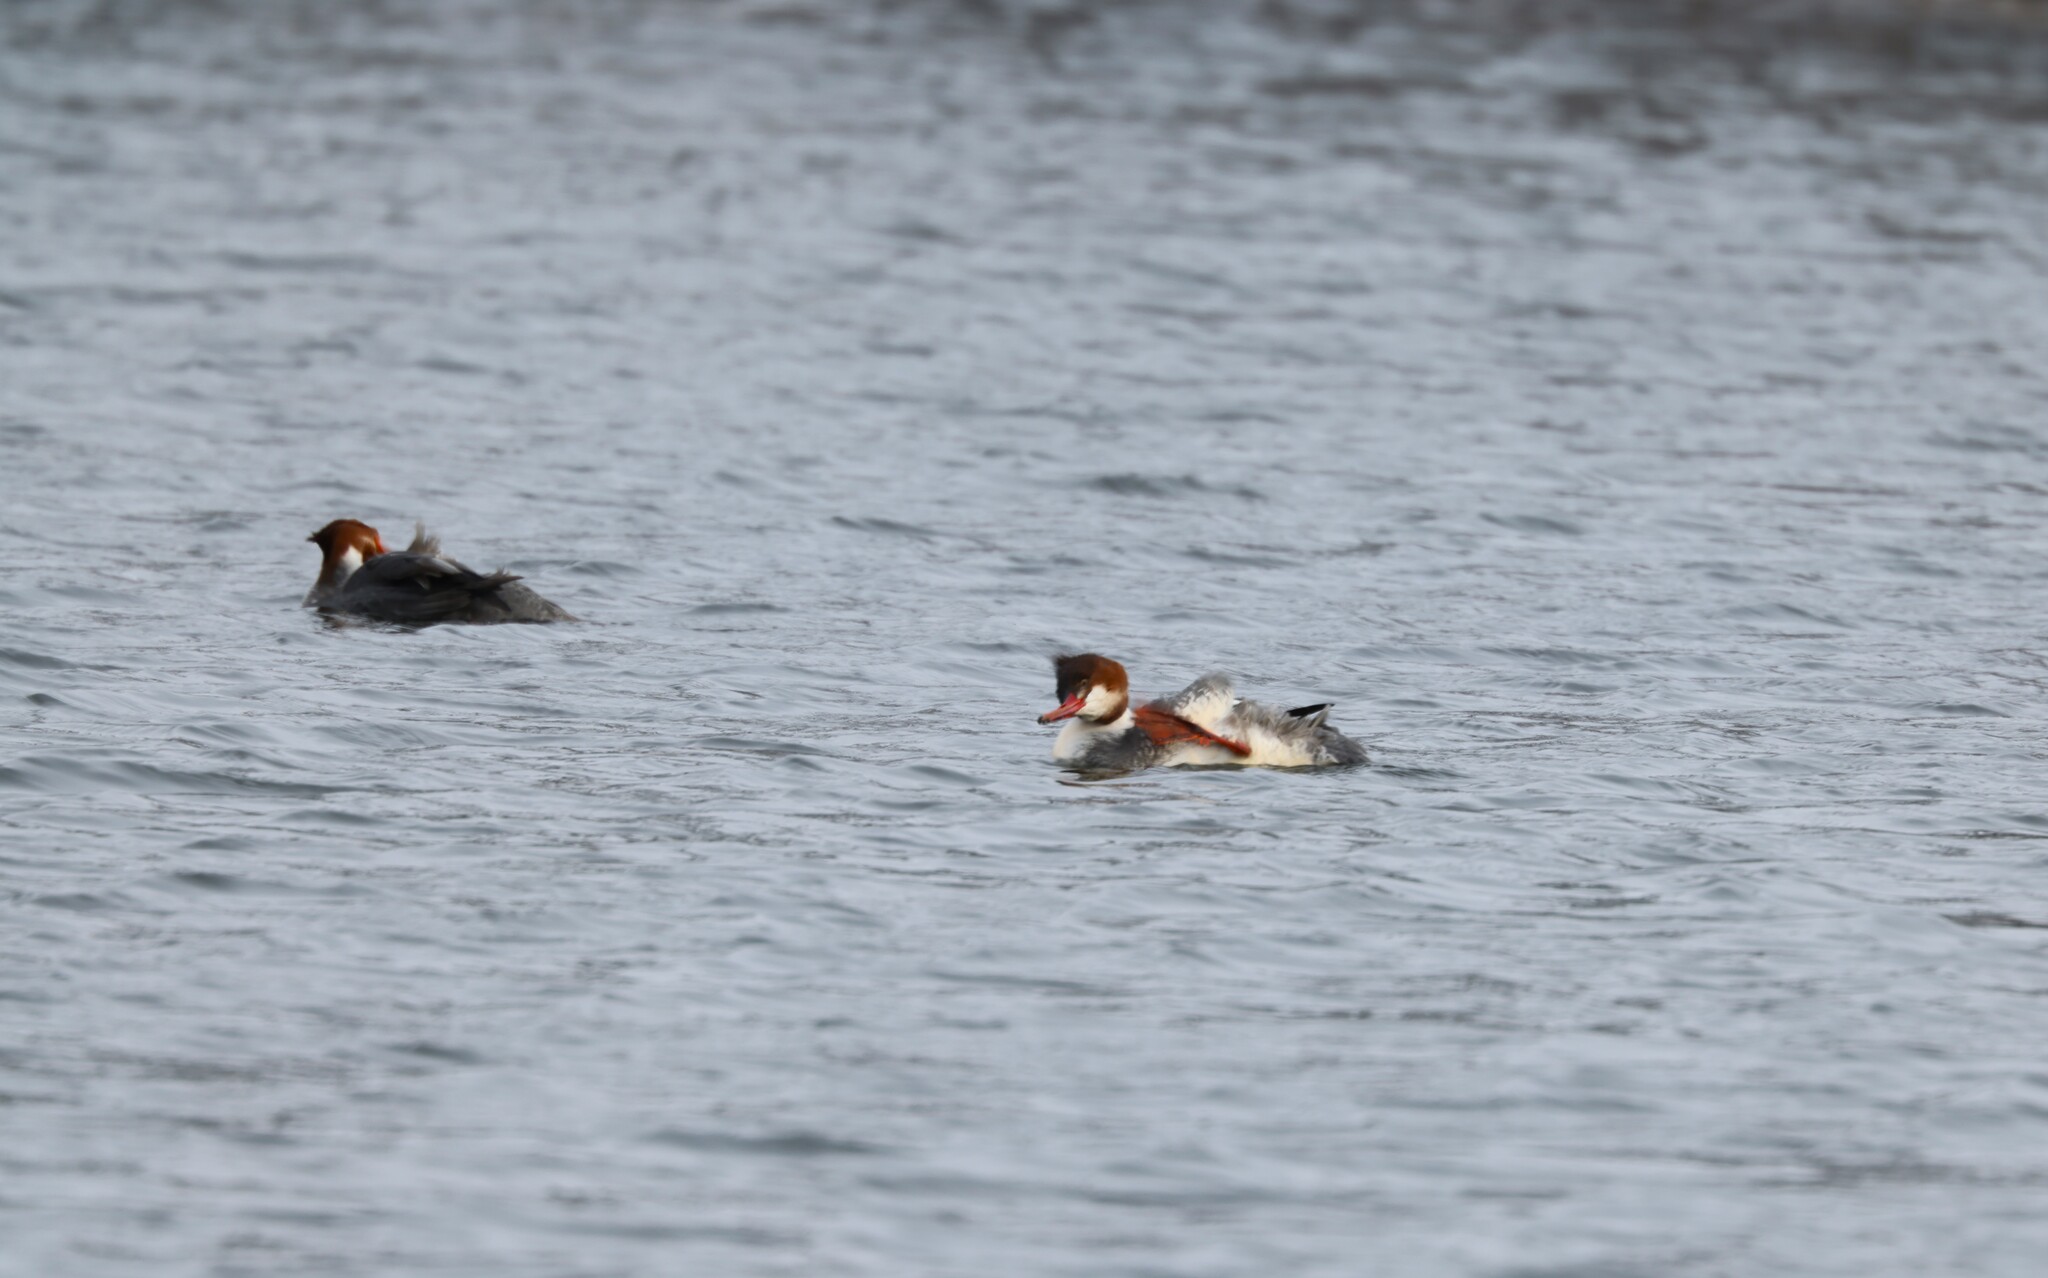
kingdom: Animalia
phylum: Chordata
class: Aves
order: Anseriformes
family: Anatidae
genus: Mergus
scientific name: Mergus merganser
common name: Common merganser
